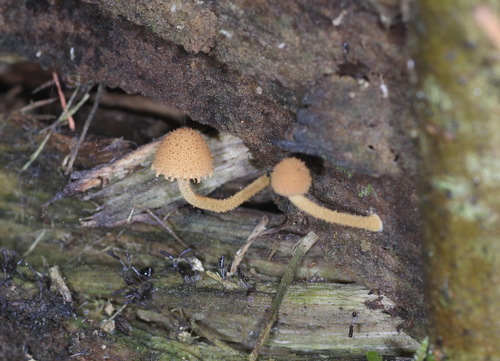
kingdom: Fungi
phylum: Basidiomycota
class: Agaricomycetes
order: Agaricales
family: Tubariaceae
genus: Flammulaster
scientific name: Flammulaster muricatus
